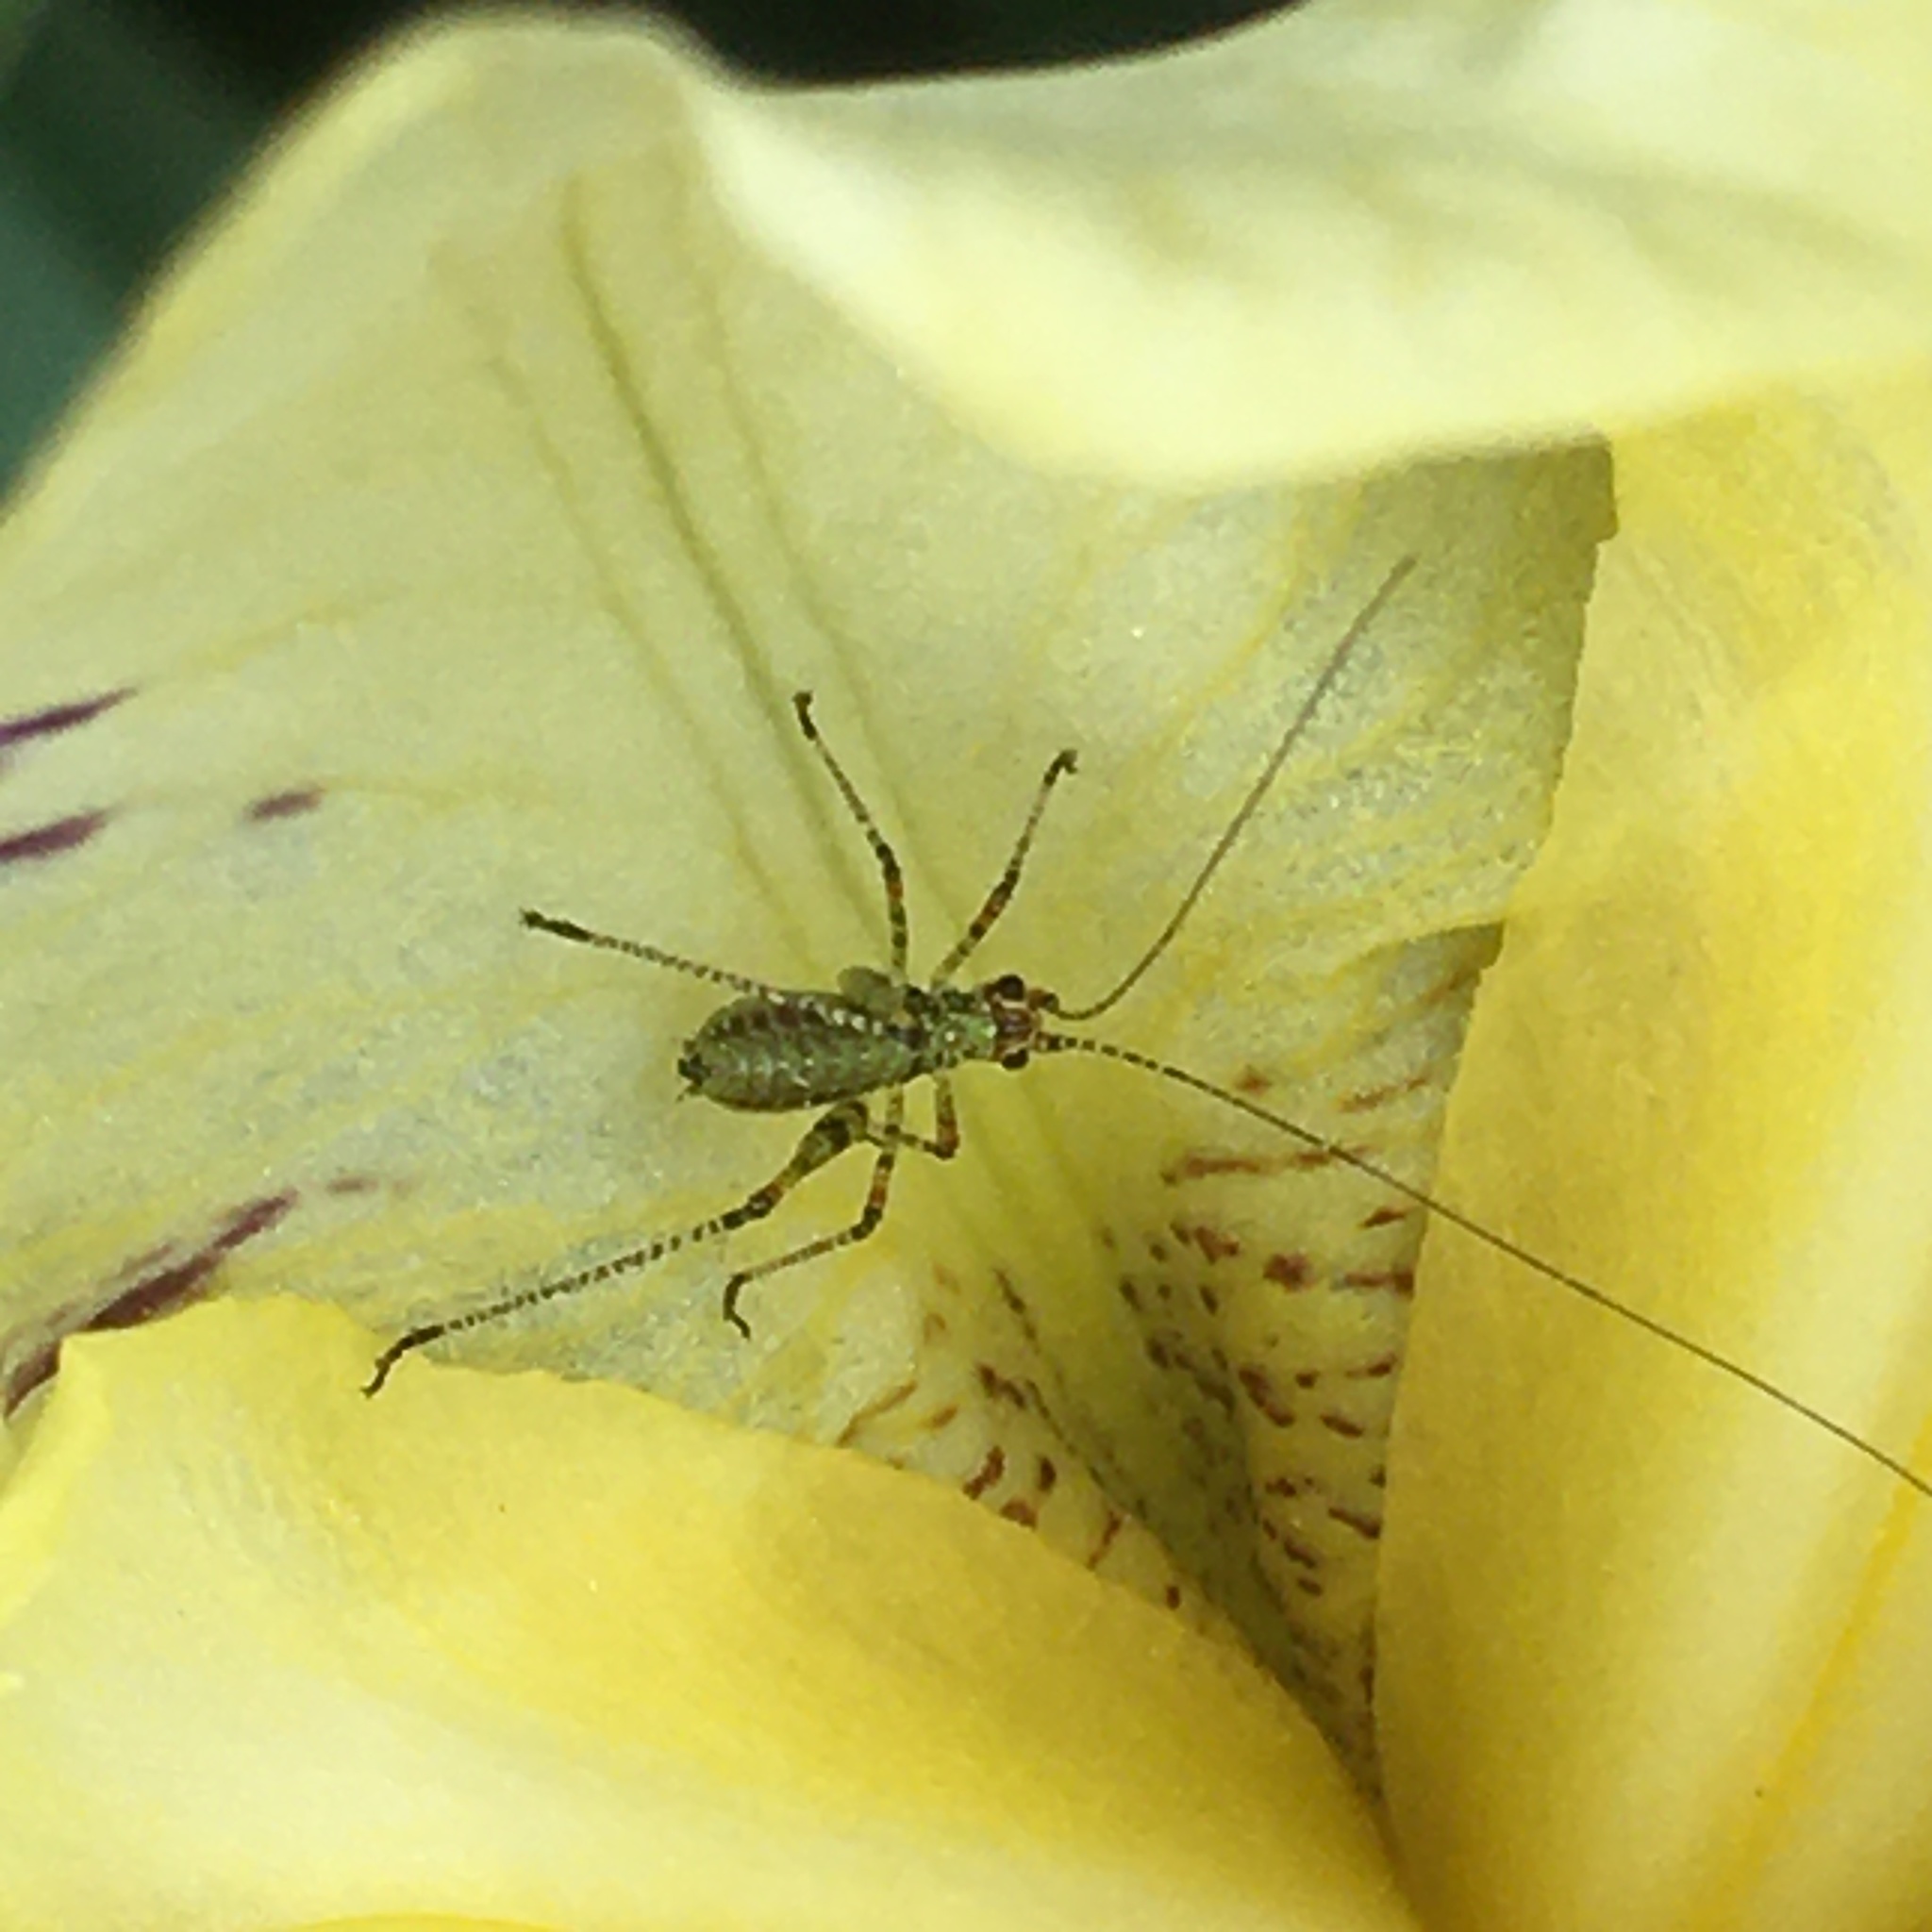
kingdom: Animalia
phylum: Arthropoda
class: Insecta
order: Orthoptera
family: Tettigoniidae
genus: Phaneroptera
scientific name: Phaneroptera nana
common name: Southern sickle bush-cricket
